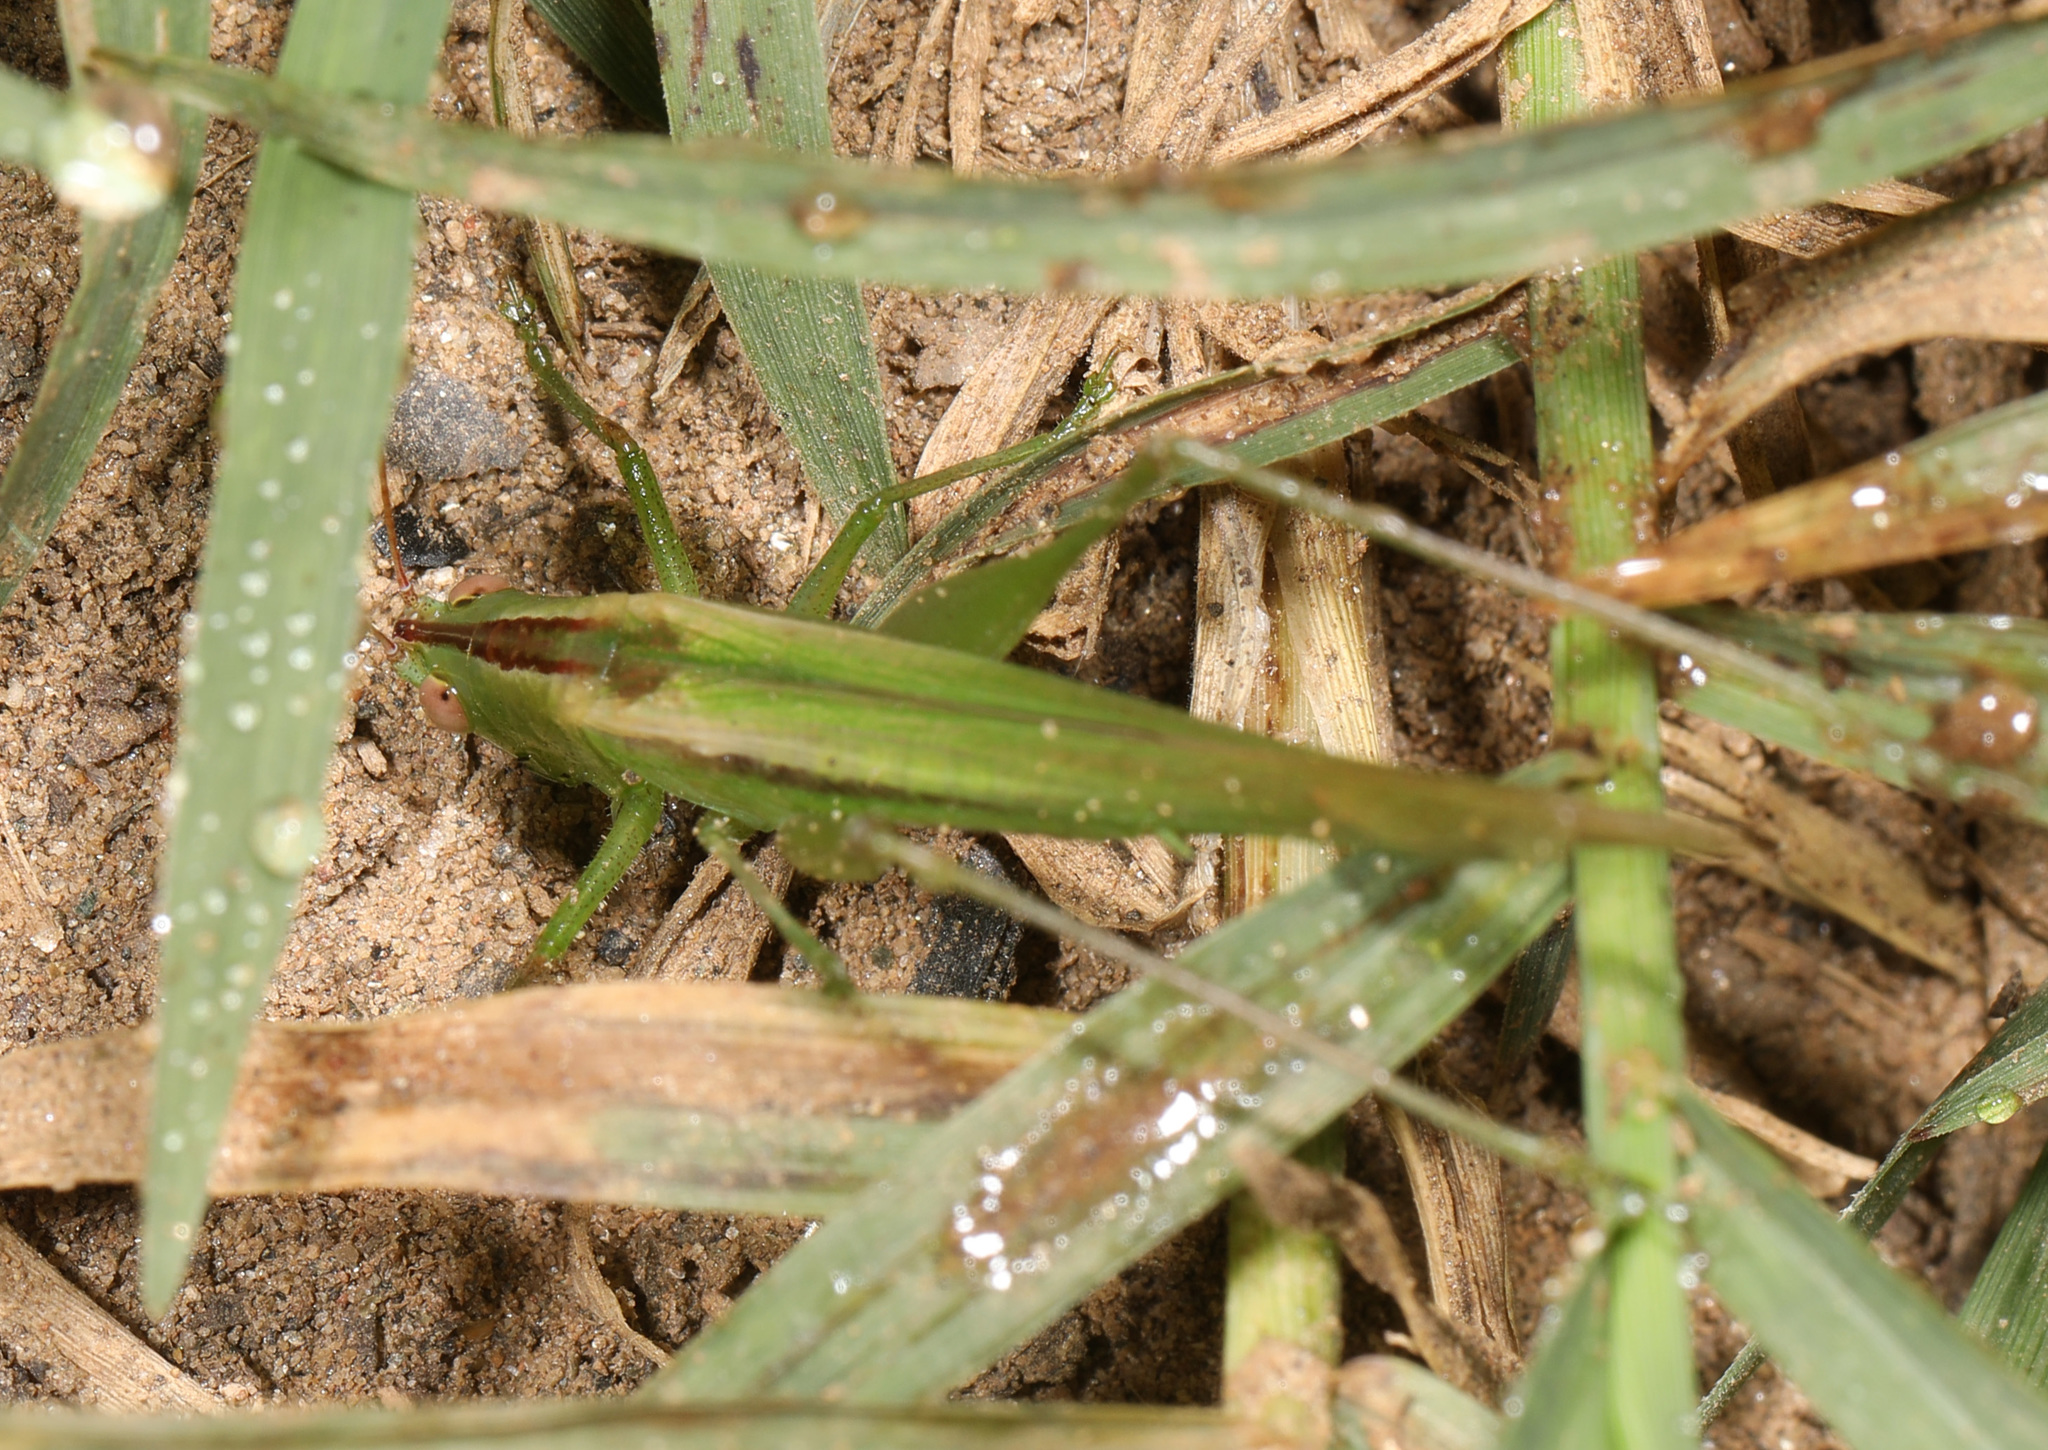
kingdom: Animalia
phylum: Arthropoda
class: Insecta
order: Orthoptera
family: Tettigoniidae
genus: Conocephalus
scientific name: Conocephalus fasciatus
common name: Slender meadow katydid
